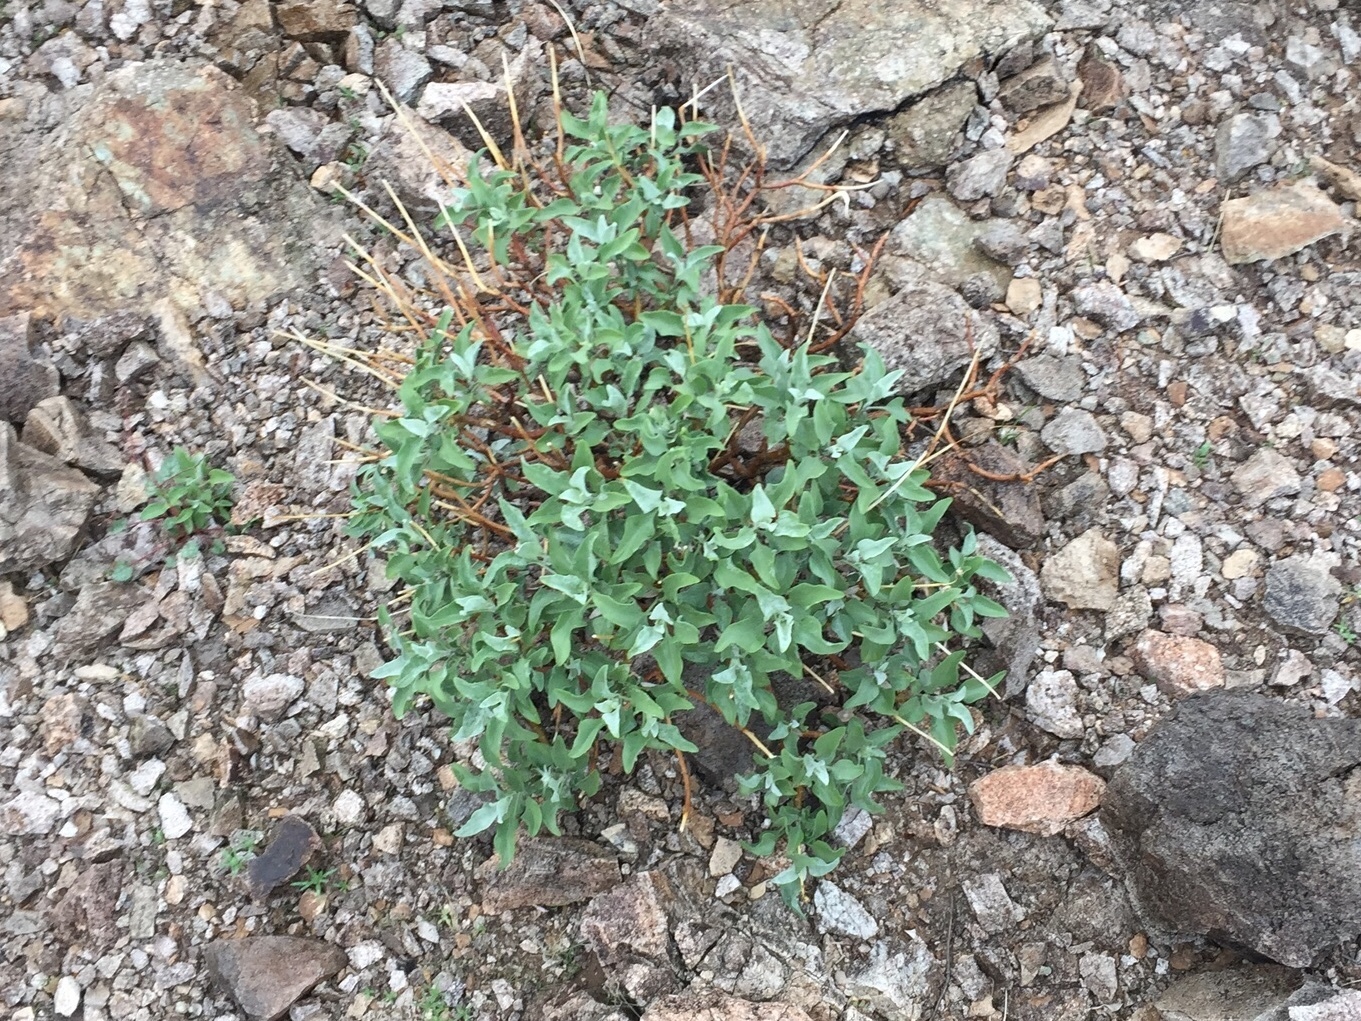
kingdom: Plantae
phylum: Tracheophyta
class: Magnoliopsida
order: Asterales
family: Asteraceae
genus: Encelia
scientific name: Encelia farinosa
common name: Brittlebush
